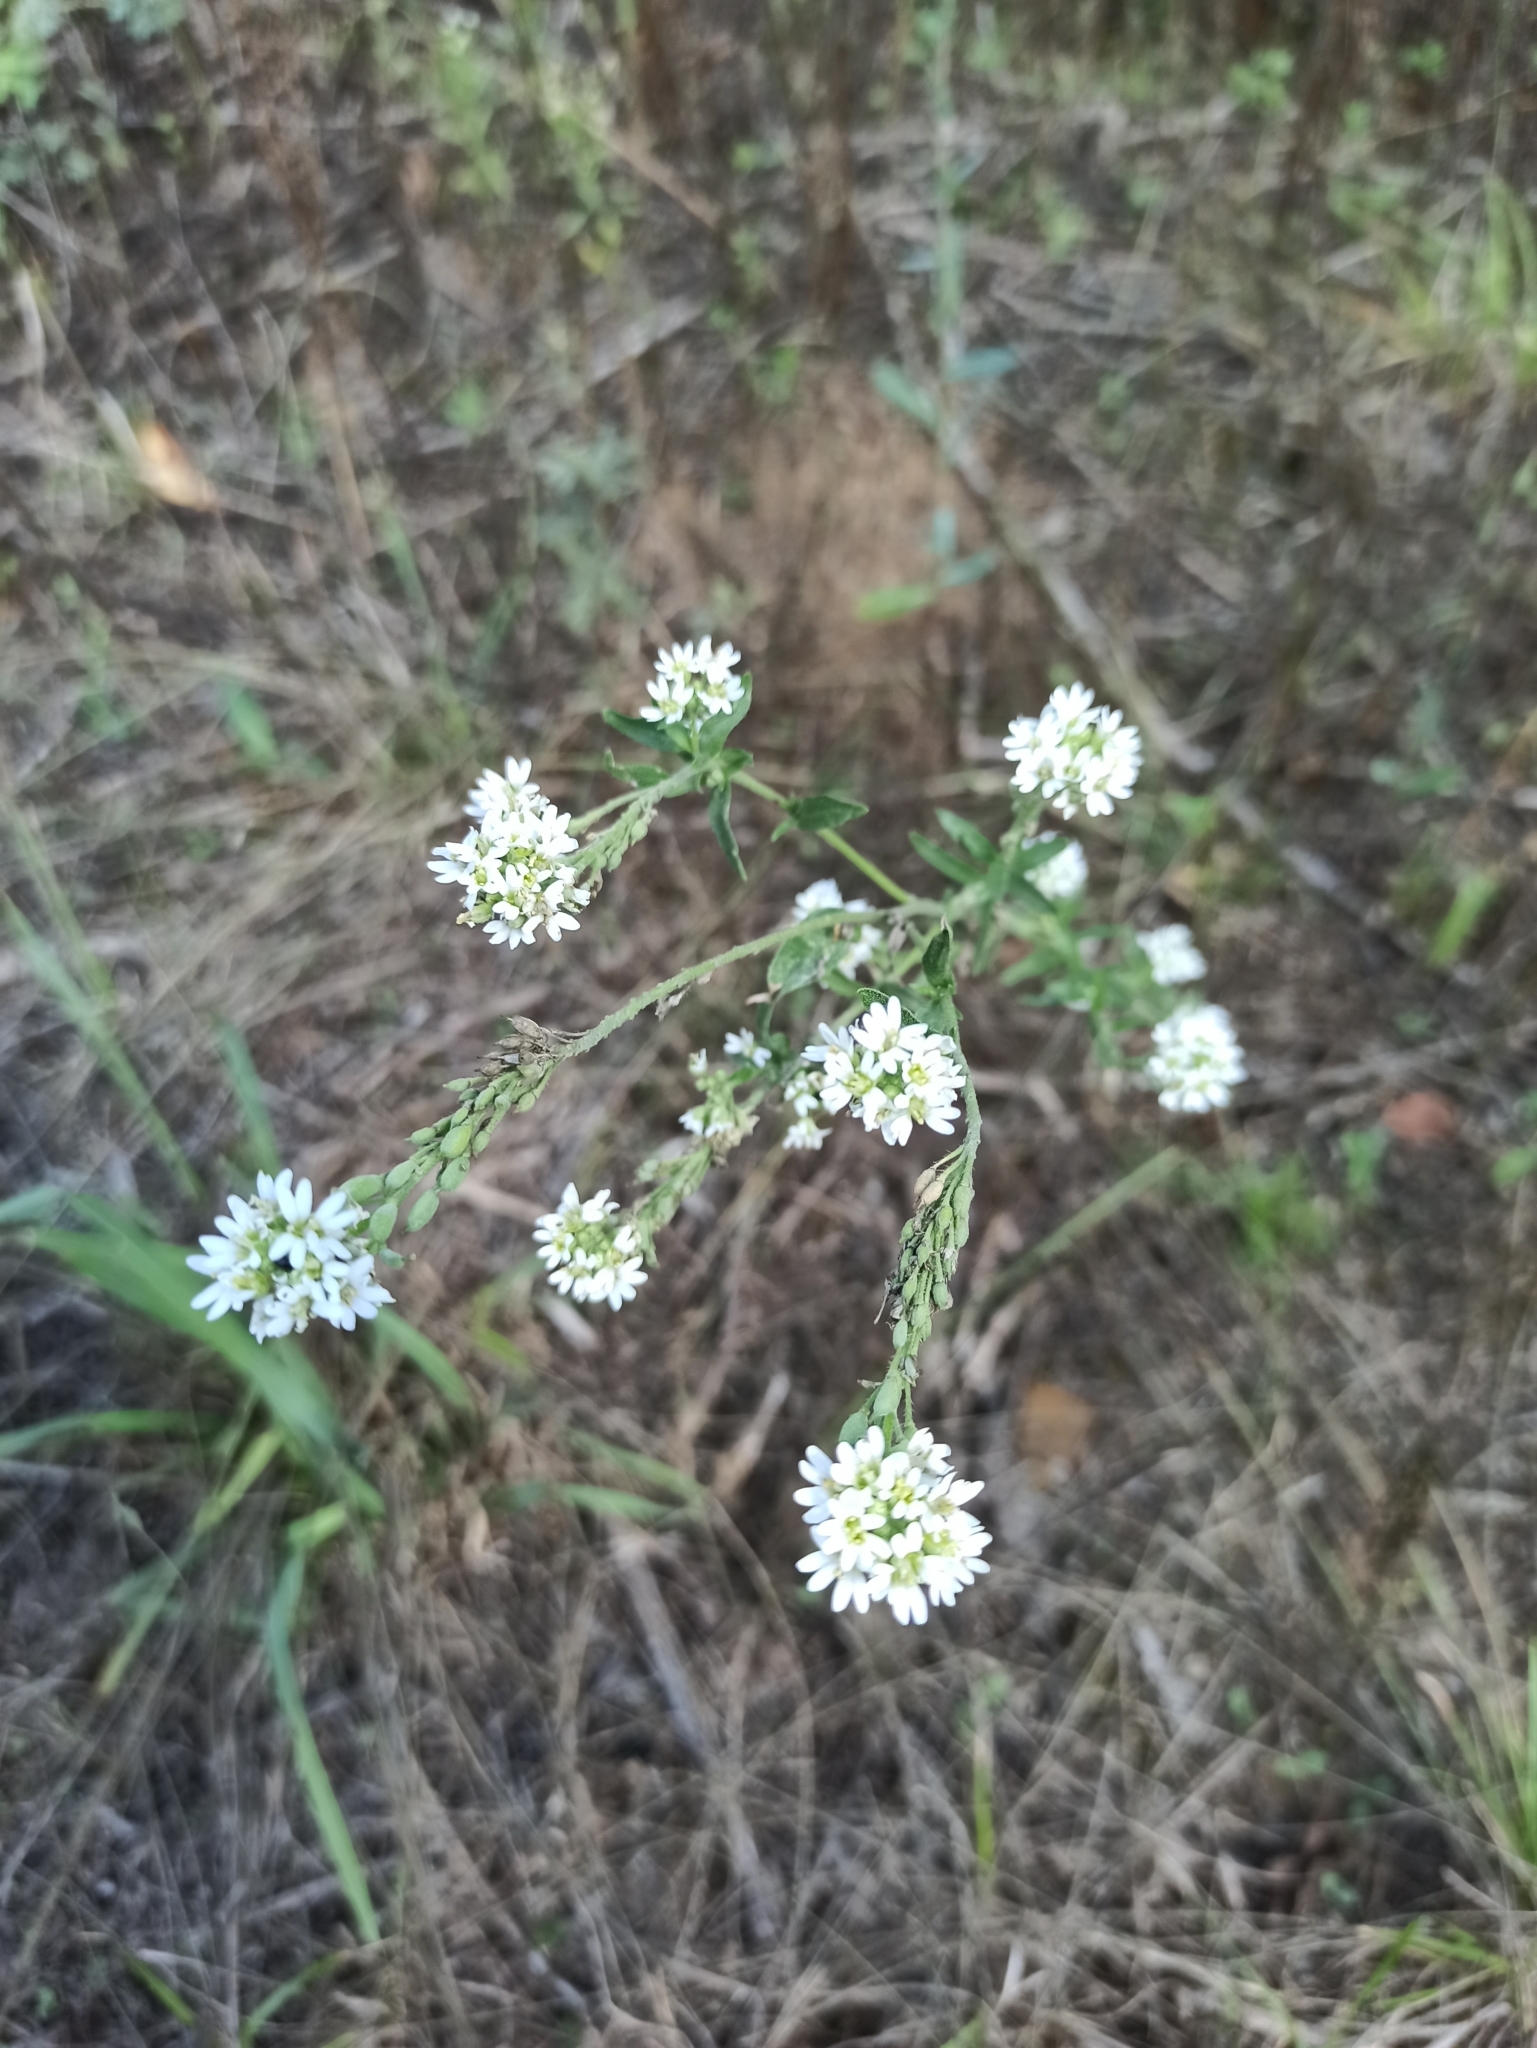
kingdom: Plantae
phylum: Tracheophyta
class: Magnoliopsida
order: Brassicales
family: Brassicaceae
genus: Berteroa
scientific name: Berteroa incana
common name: Hoary alison
